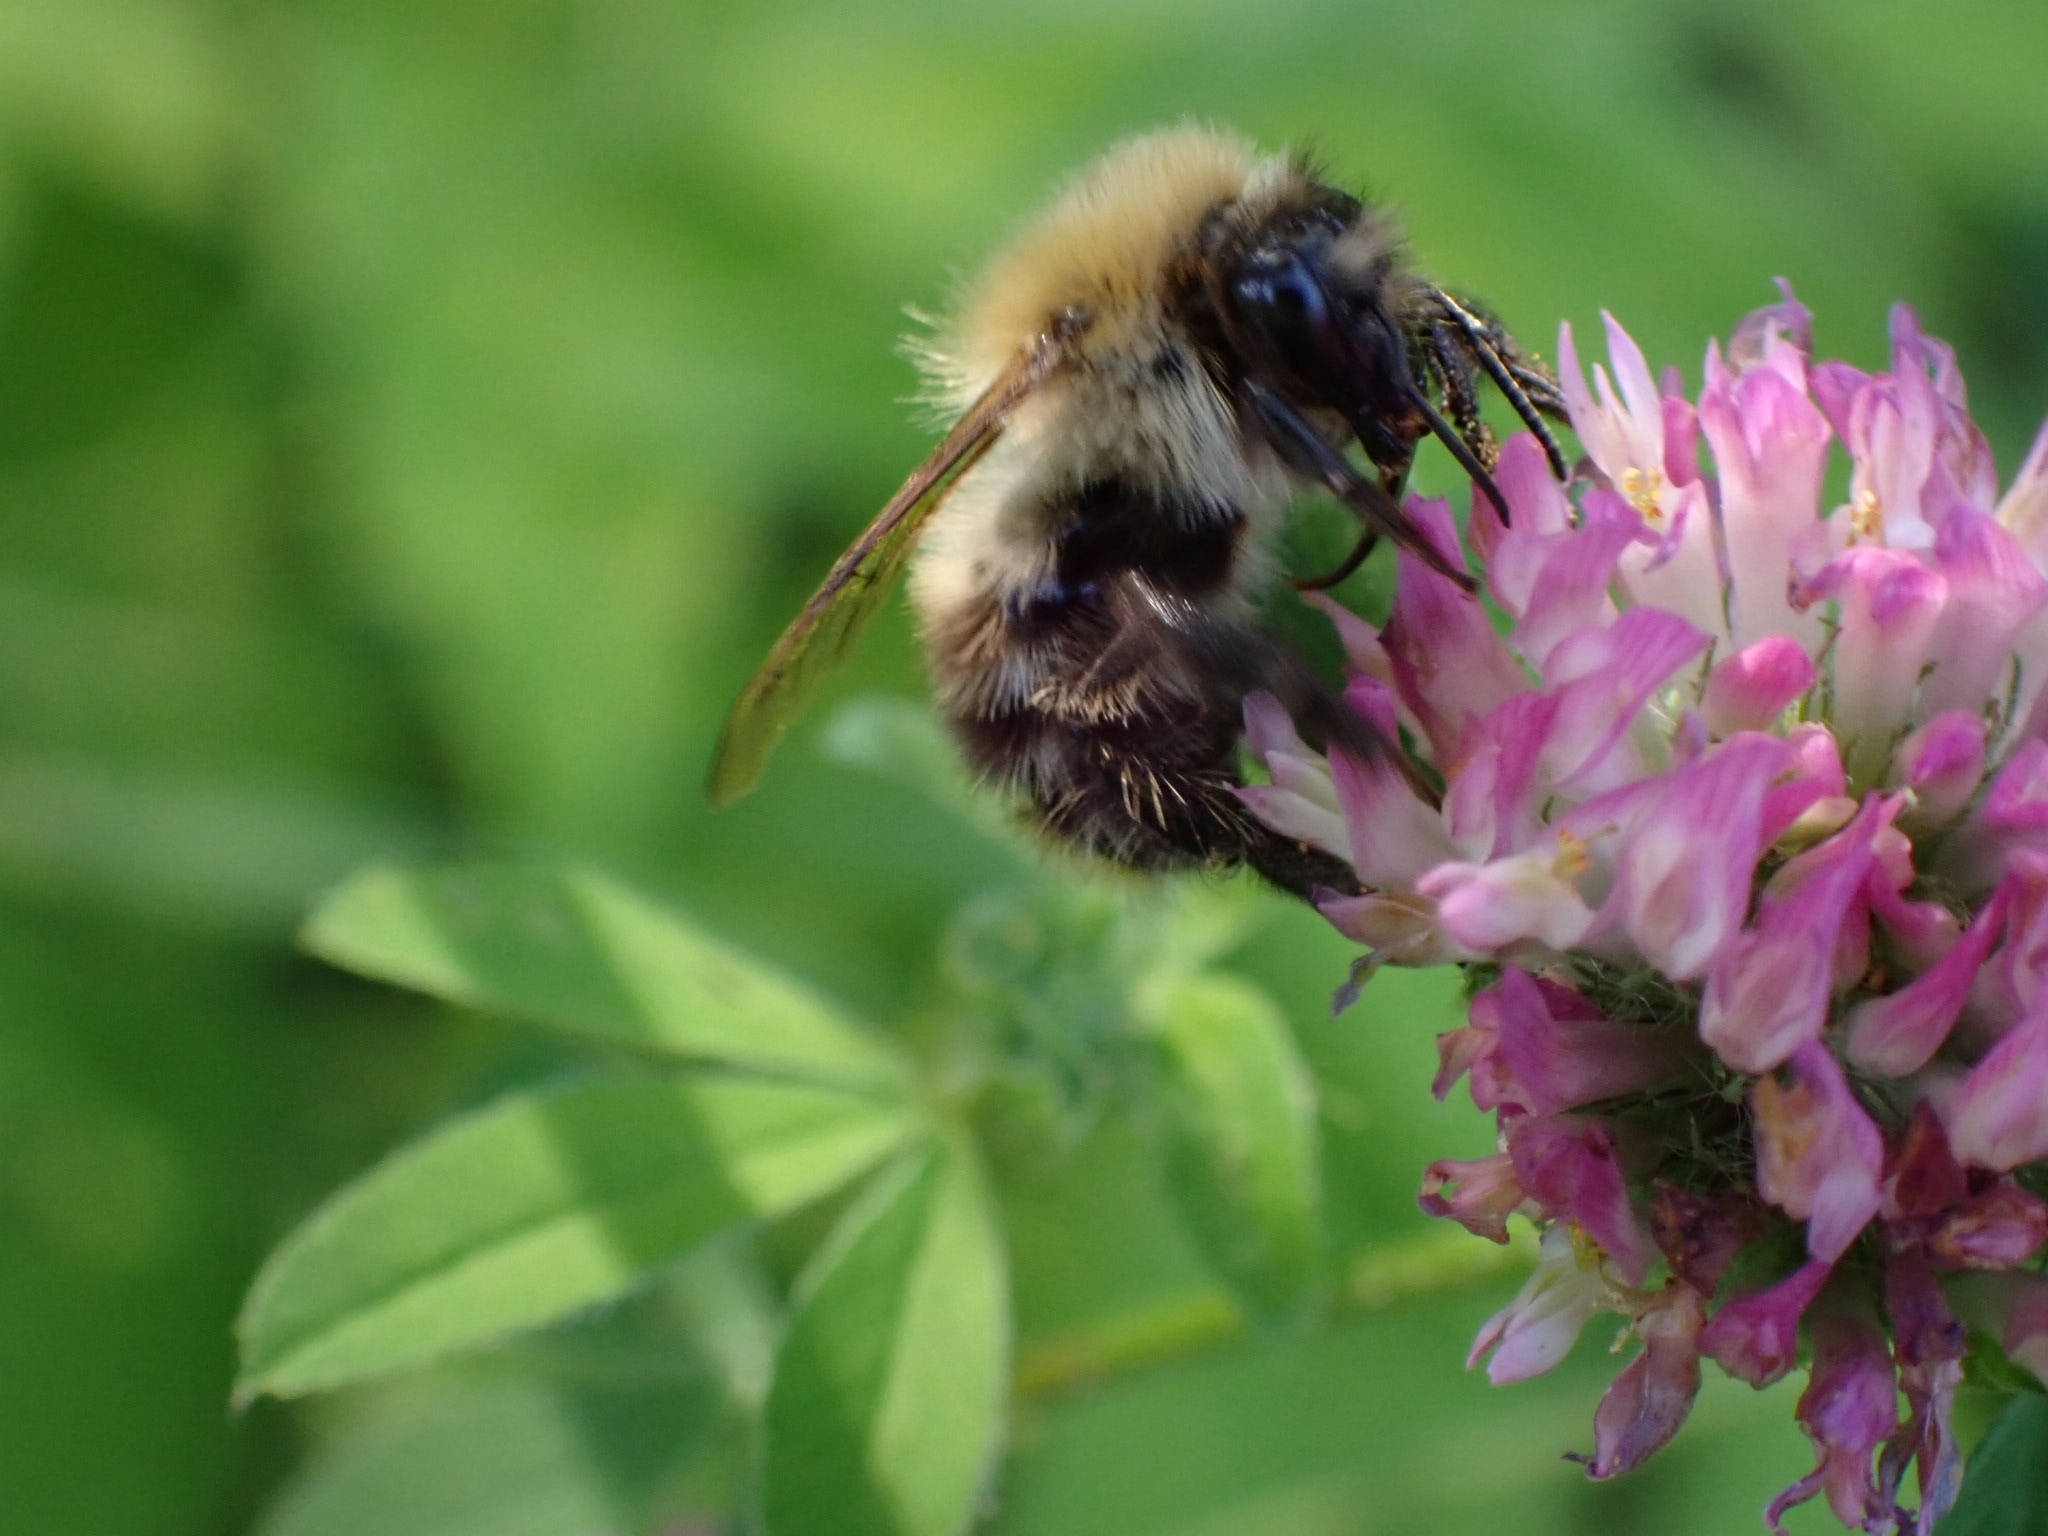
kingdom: Animalia
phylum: Arthropoda
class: Insecta
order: Hymenoptera
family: Apidae
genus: Bombus
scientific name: Bombus pascuorum
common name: Common carder bee
